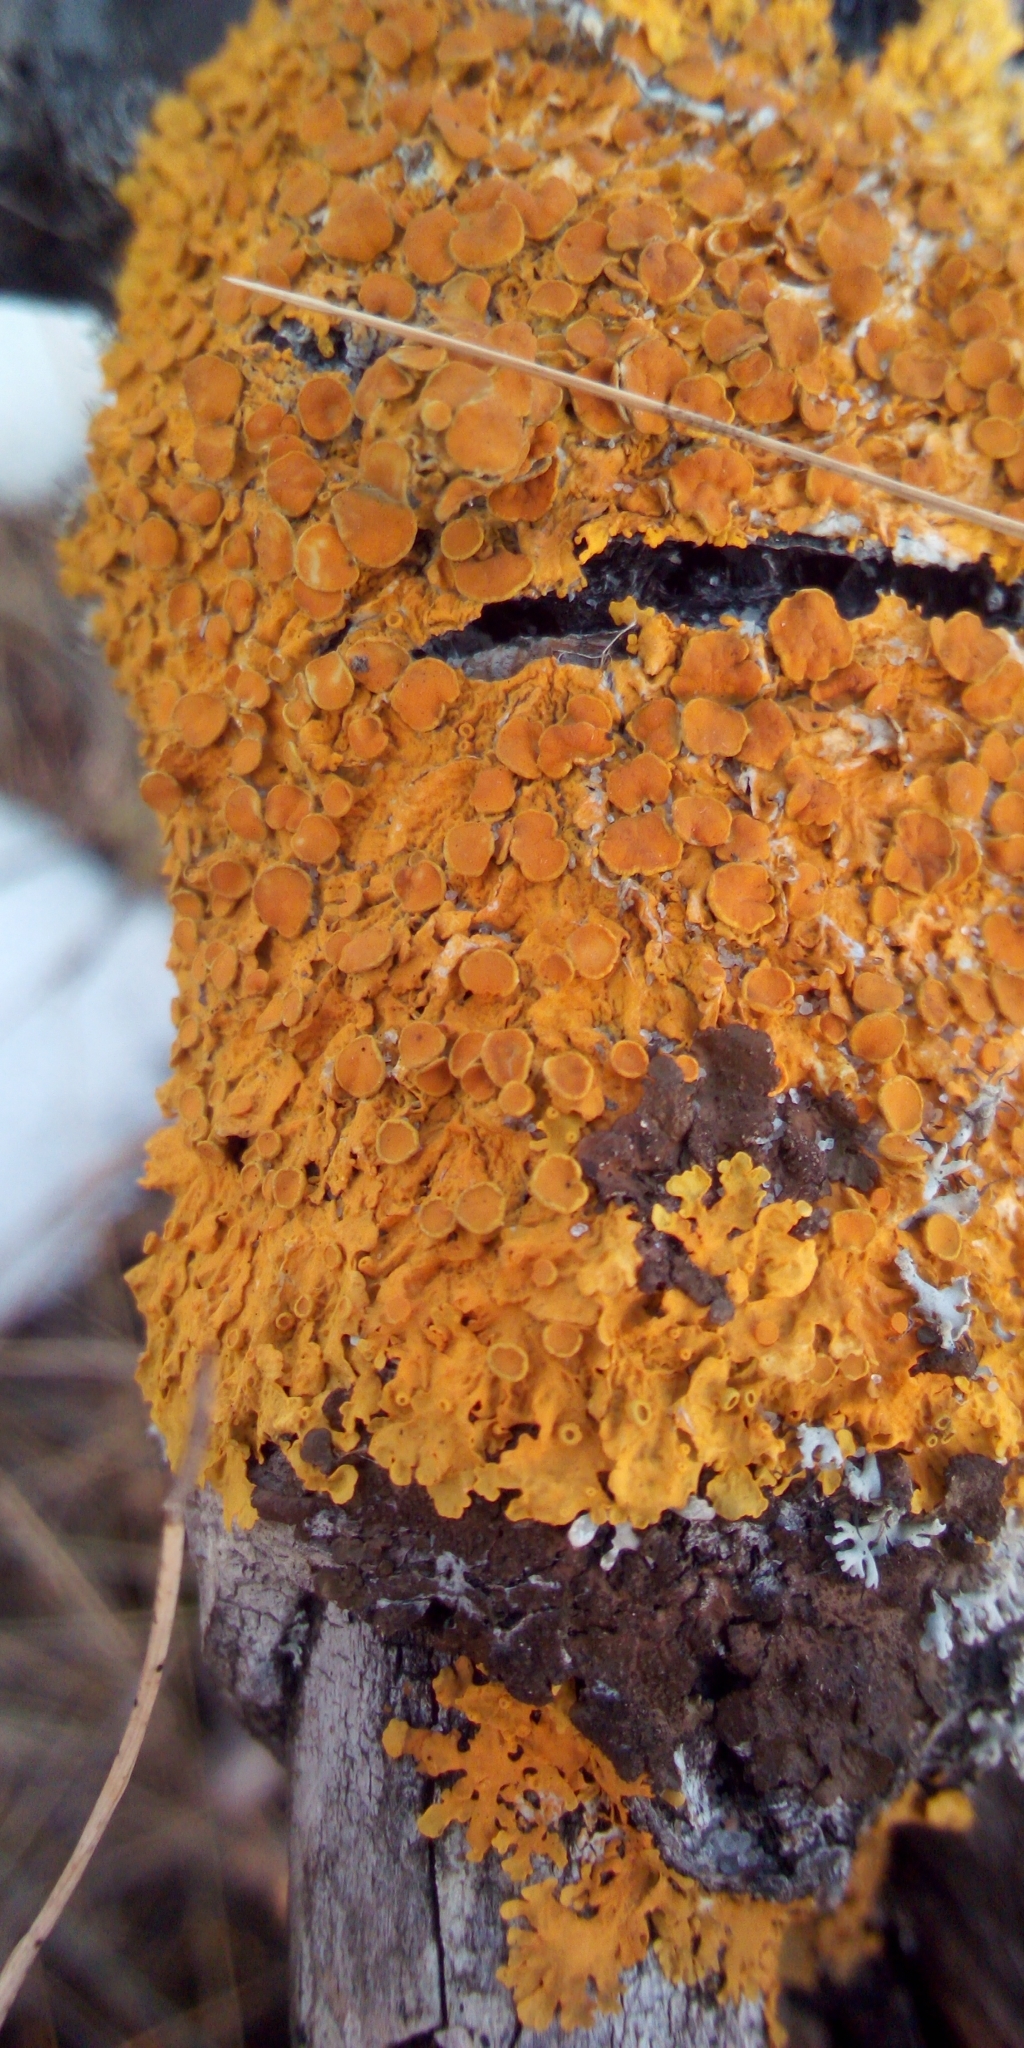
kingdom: Fungi
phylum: Ascomycota
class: Lecanoromycetes
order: Teloschistales
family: Teloschistaceae
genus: Xanthoria
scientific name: Xanthoria parietina
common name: Common orange lichen
